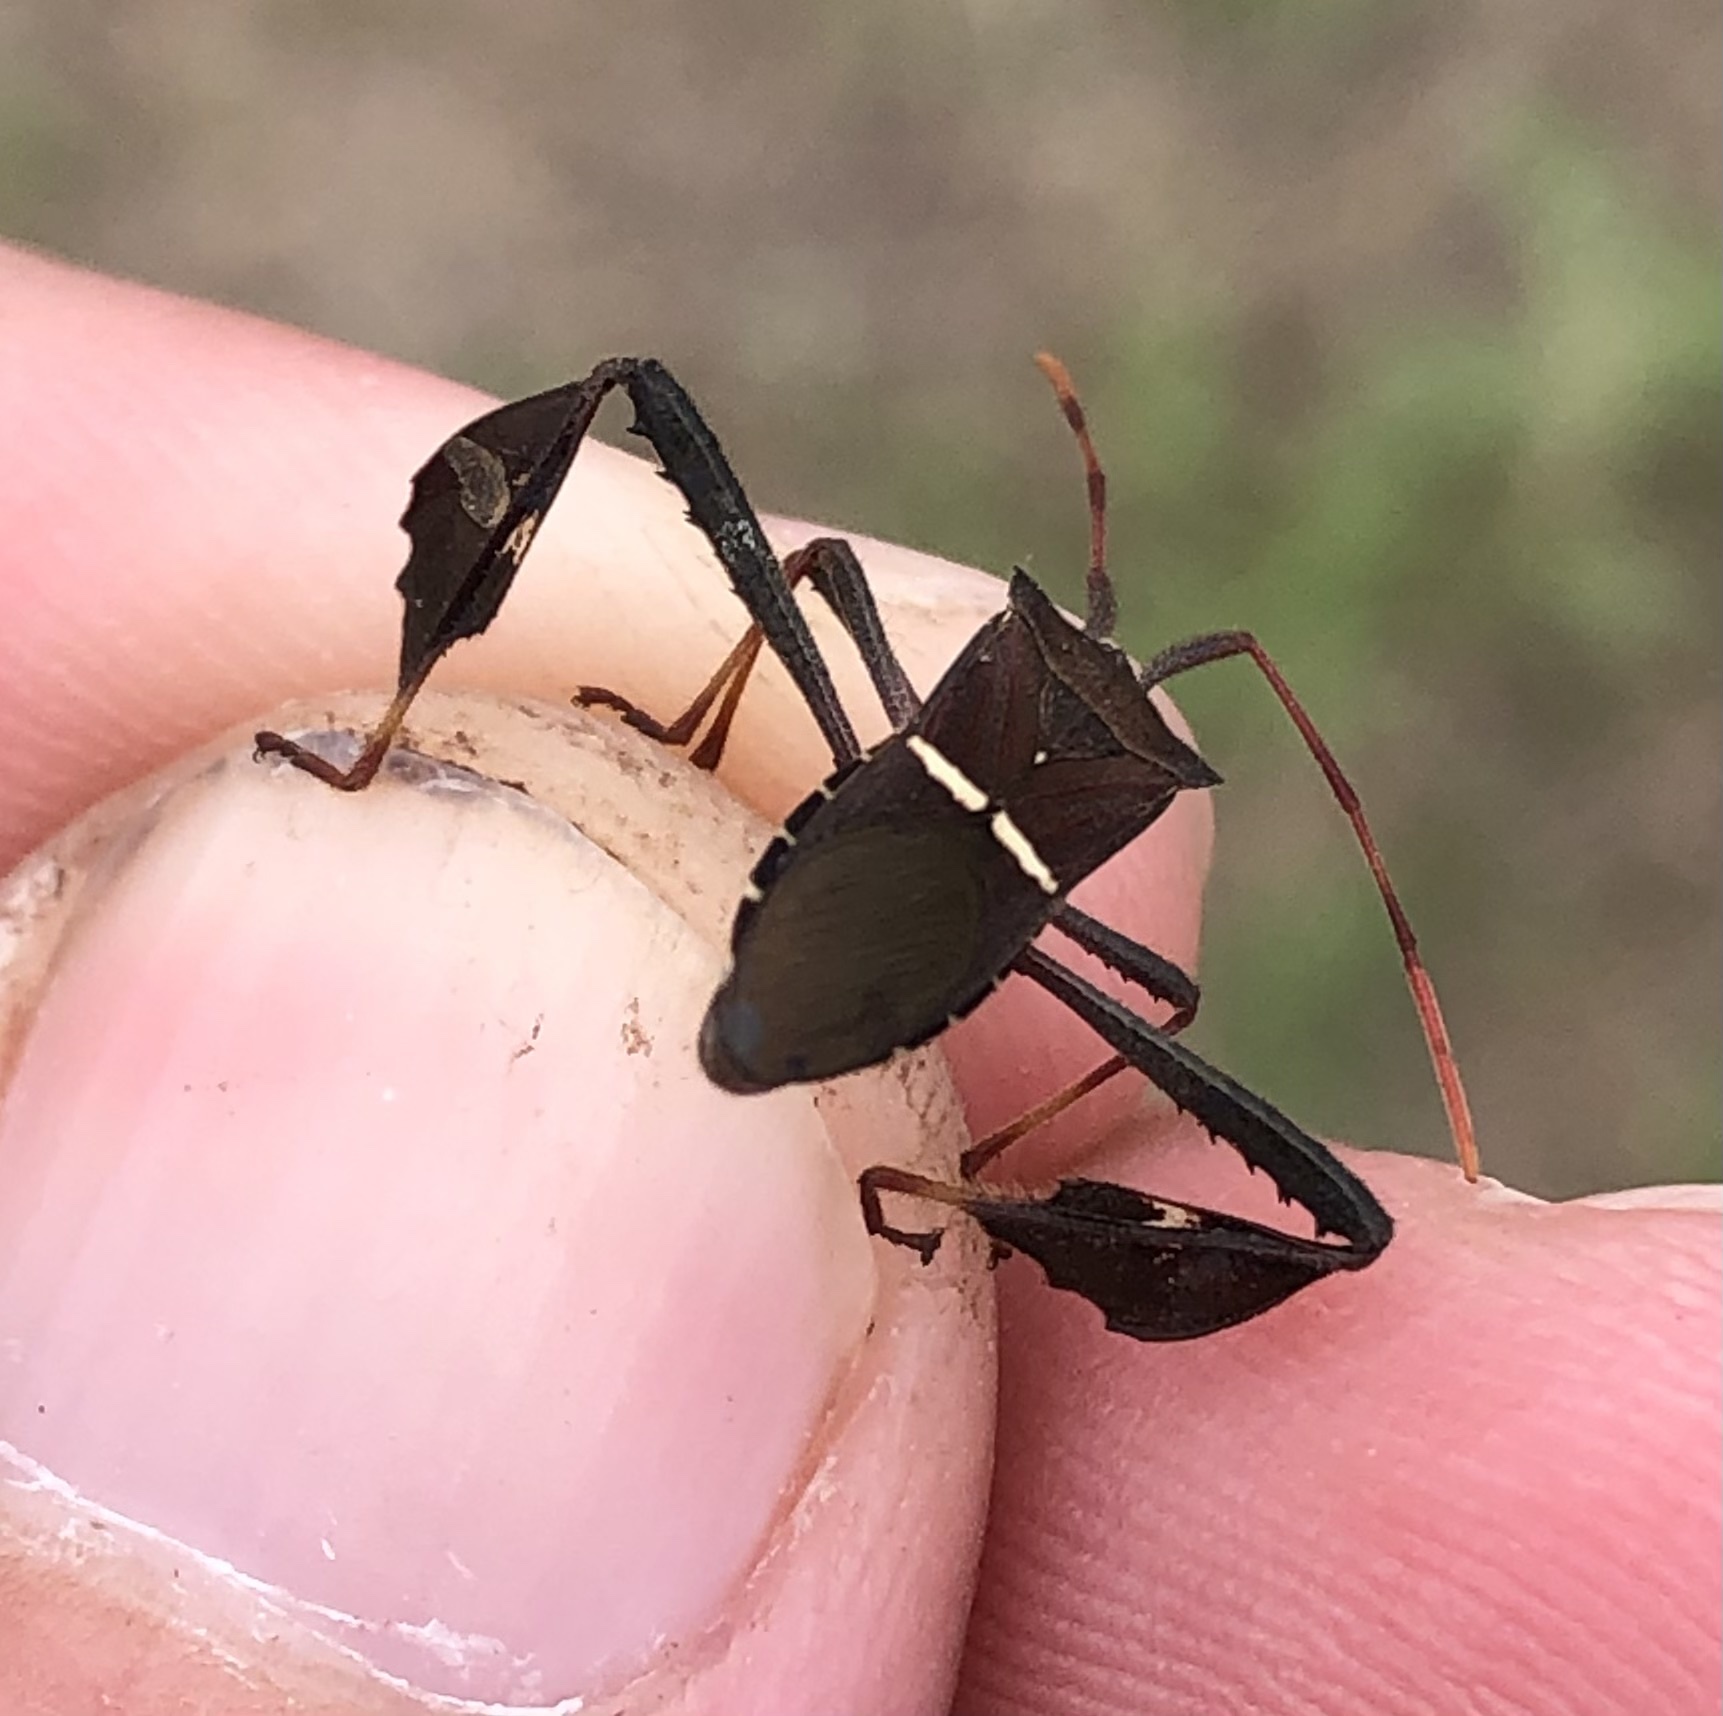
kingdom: Animalia
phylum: Arthropoda
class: Insecta
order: Hemiptera
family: Coreidae
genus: Leptoglossus
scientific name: Leptoglossus phyllopus
